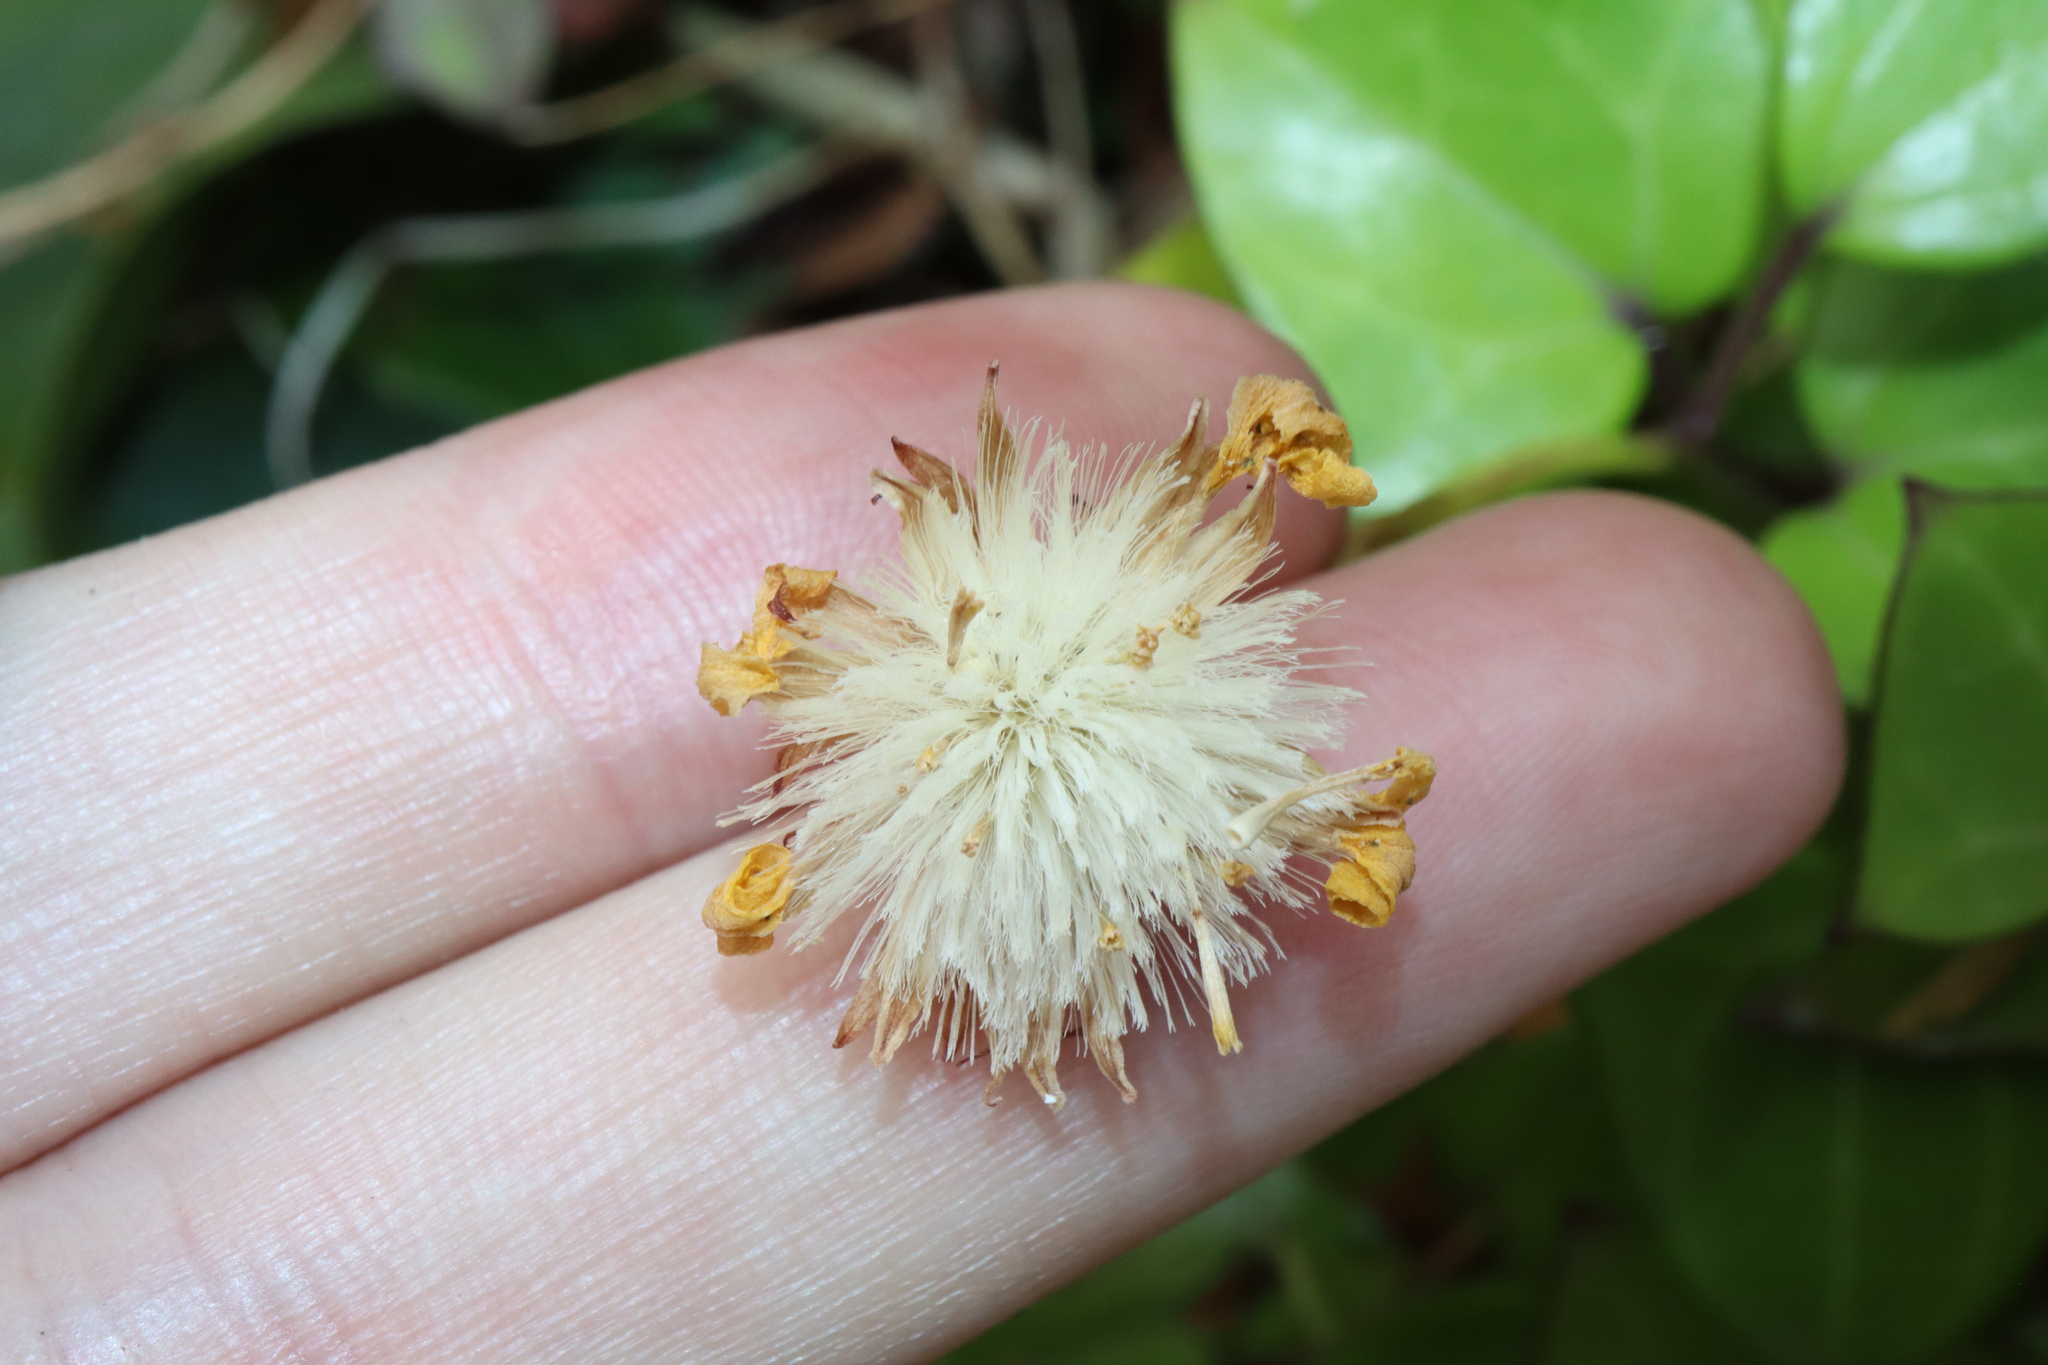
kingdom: Plantae
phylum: Tracheophyta
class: Magnoliopsida
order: Asterales
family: Asteraceae
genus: Senecio
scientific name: Senecio macroglossus
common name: Natal-ivy
